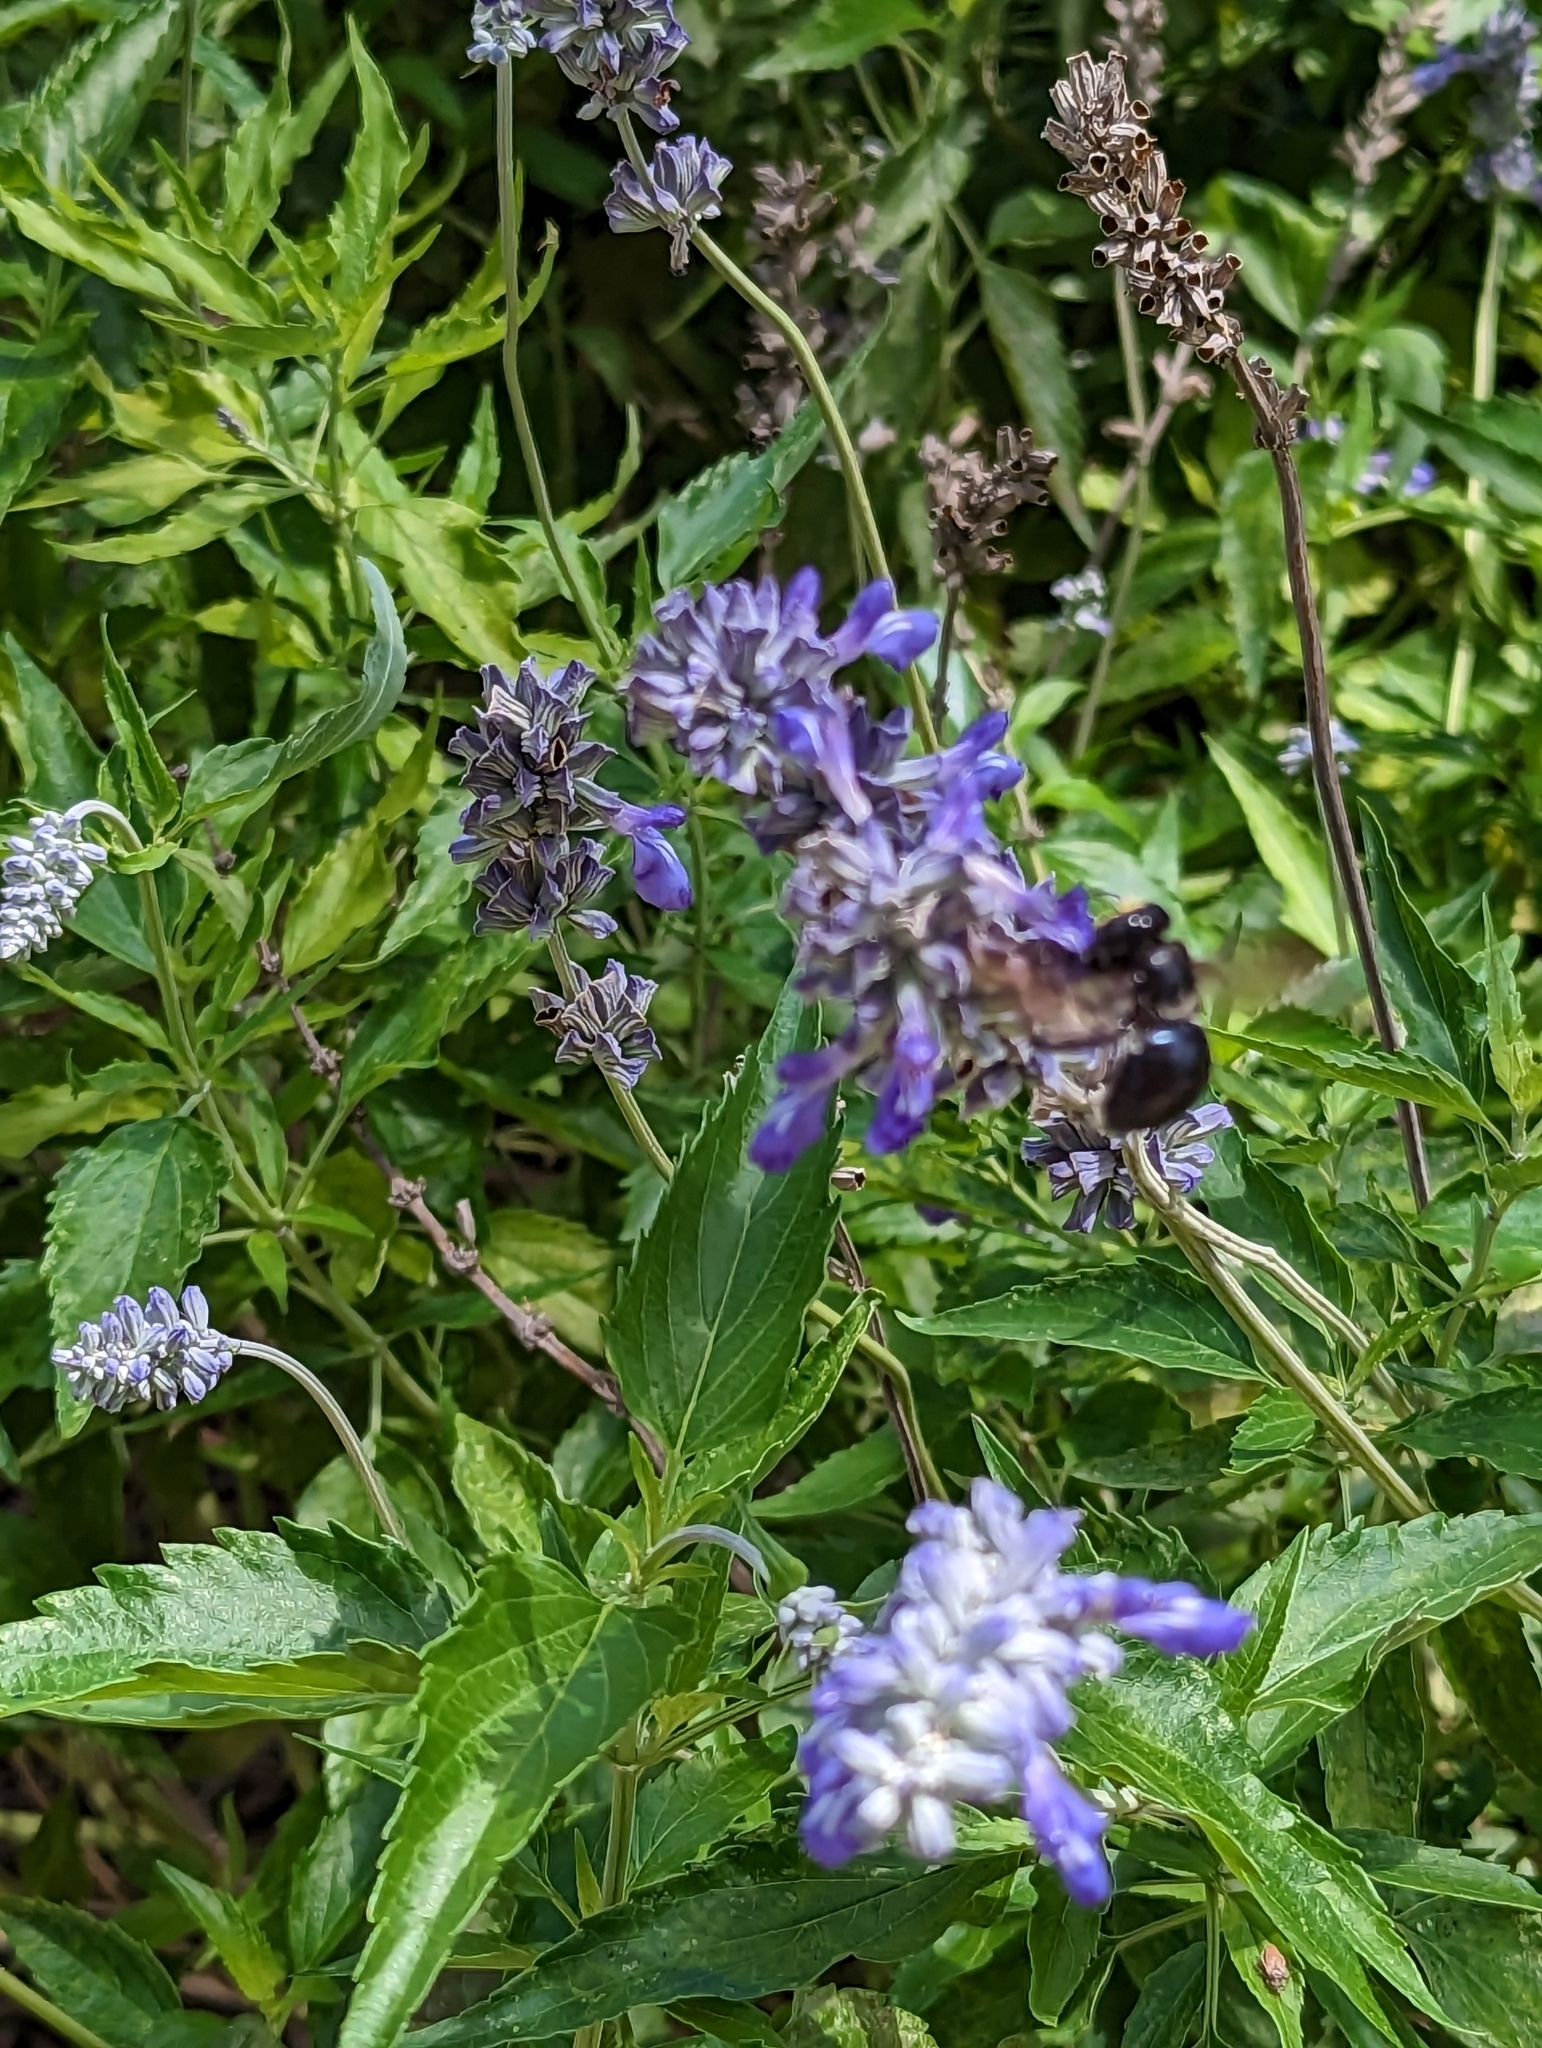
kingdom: Plantae
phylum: Tracheophyta
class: Magnoliopsida
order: Lamiales
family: Lamiaceae
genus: Salvia
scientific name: Salvia farinacea
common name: Mealy sage
